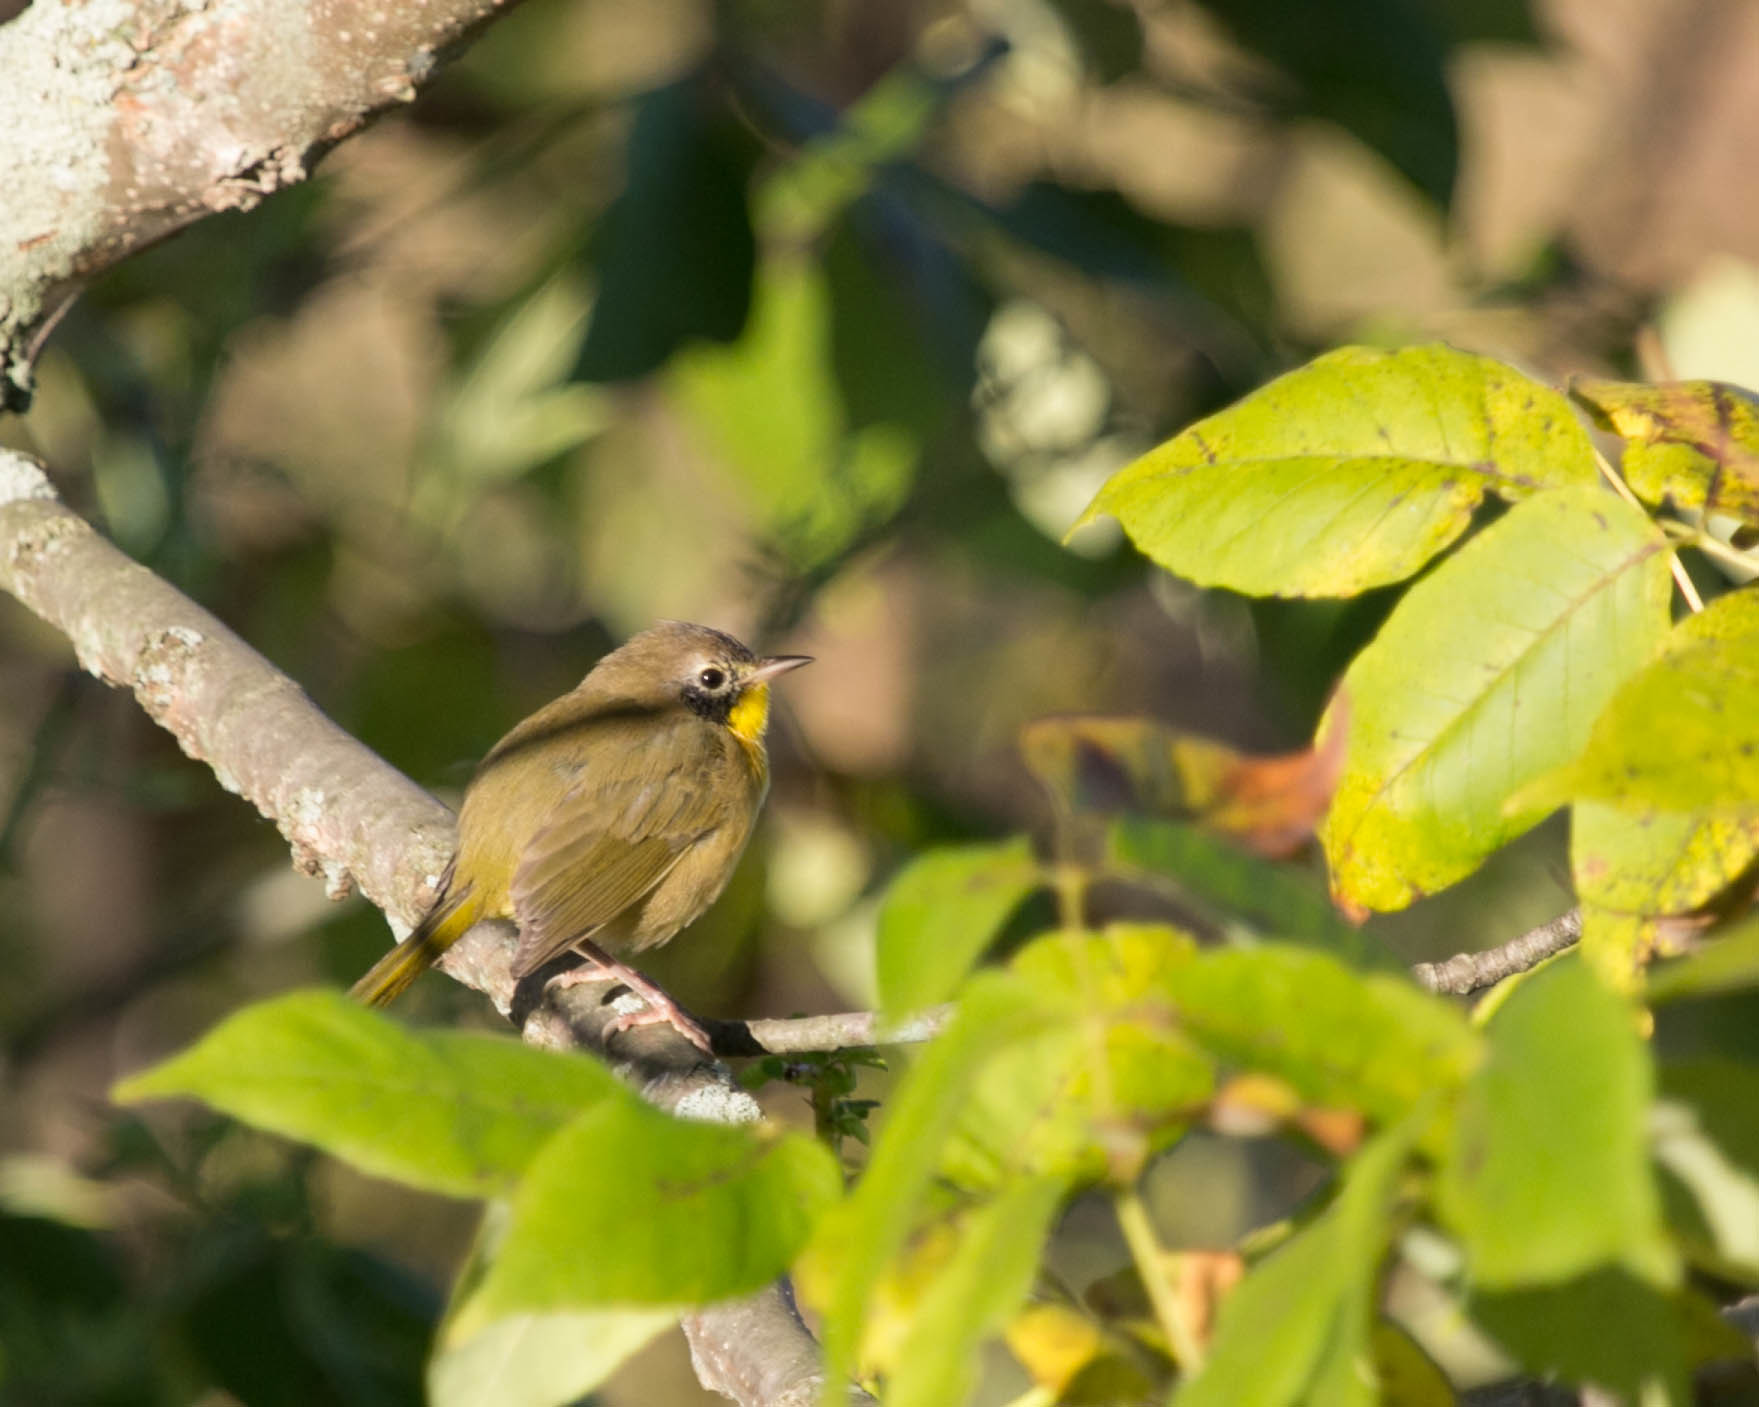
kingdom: Animalia
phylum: Chordata
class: Aves
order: Passeriformes
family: Parulidae
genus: Geothlypis
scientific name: Geothlypis trichas
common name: Common yellowthroat
